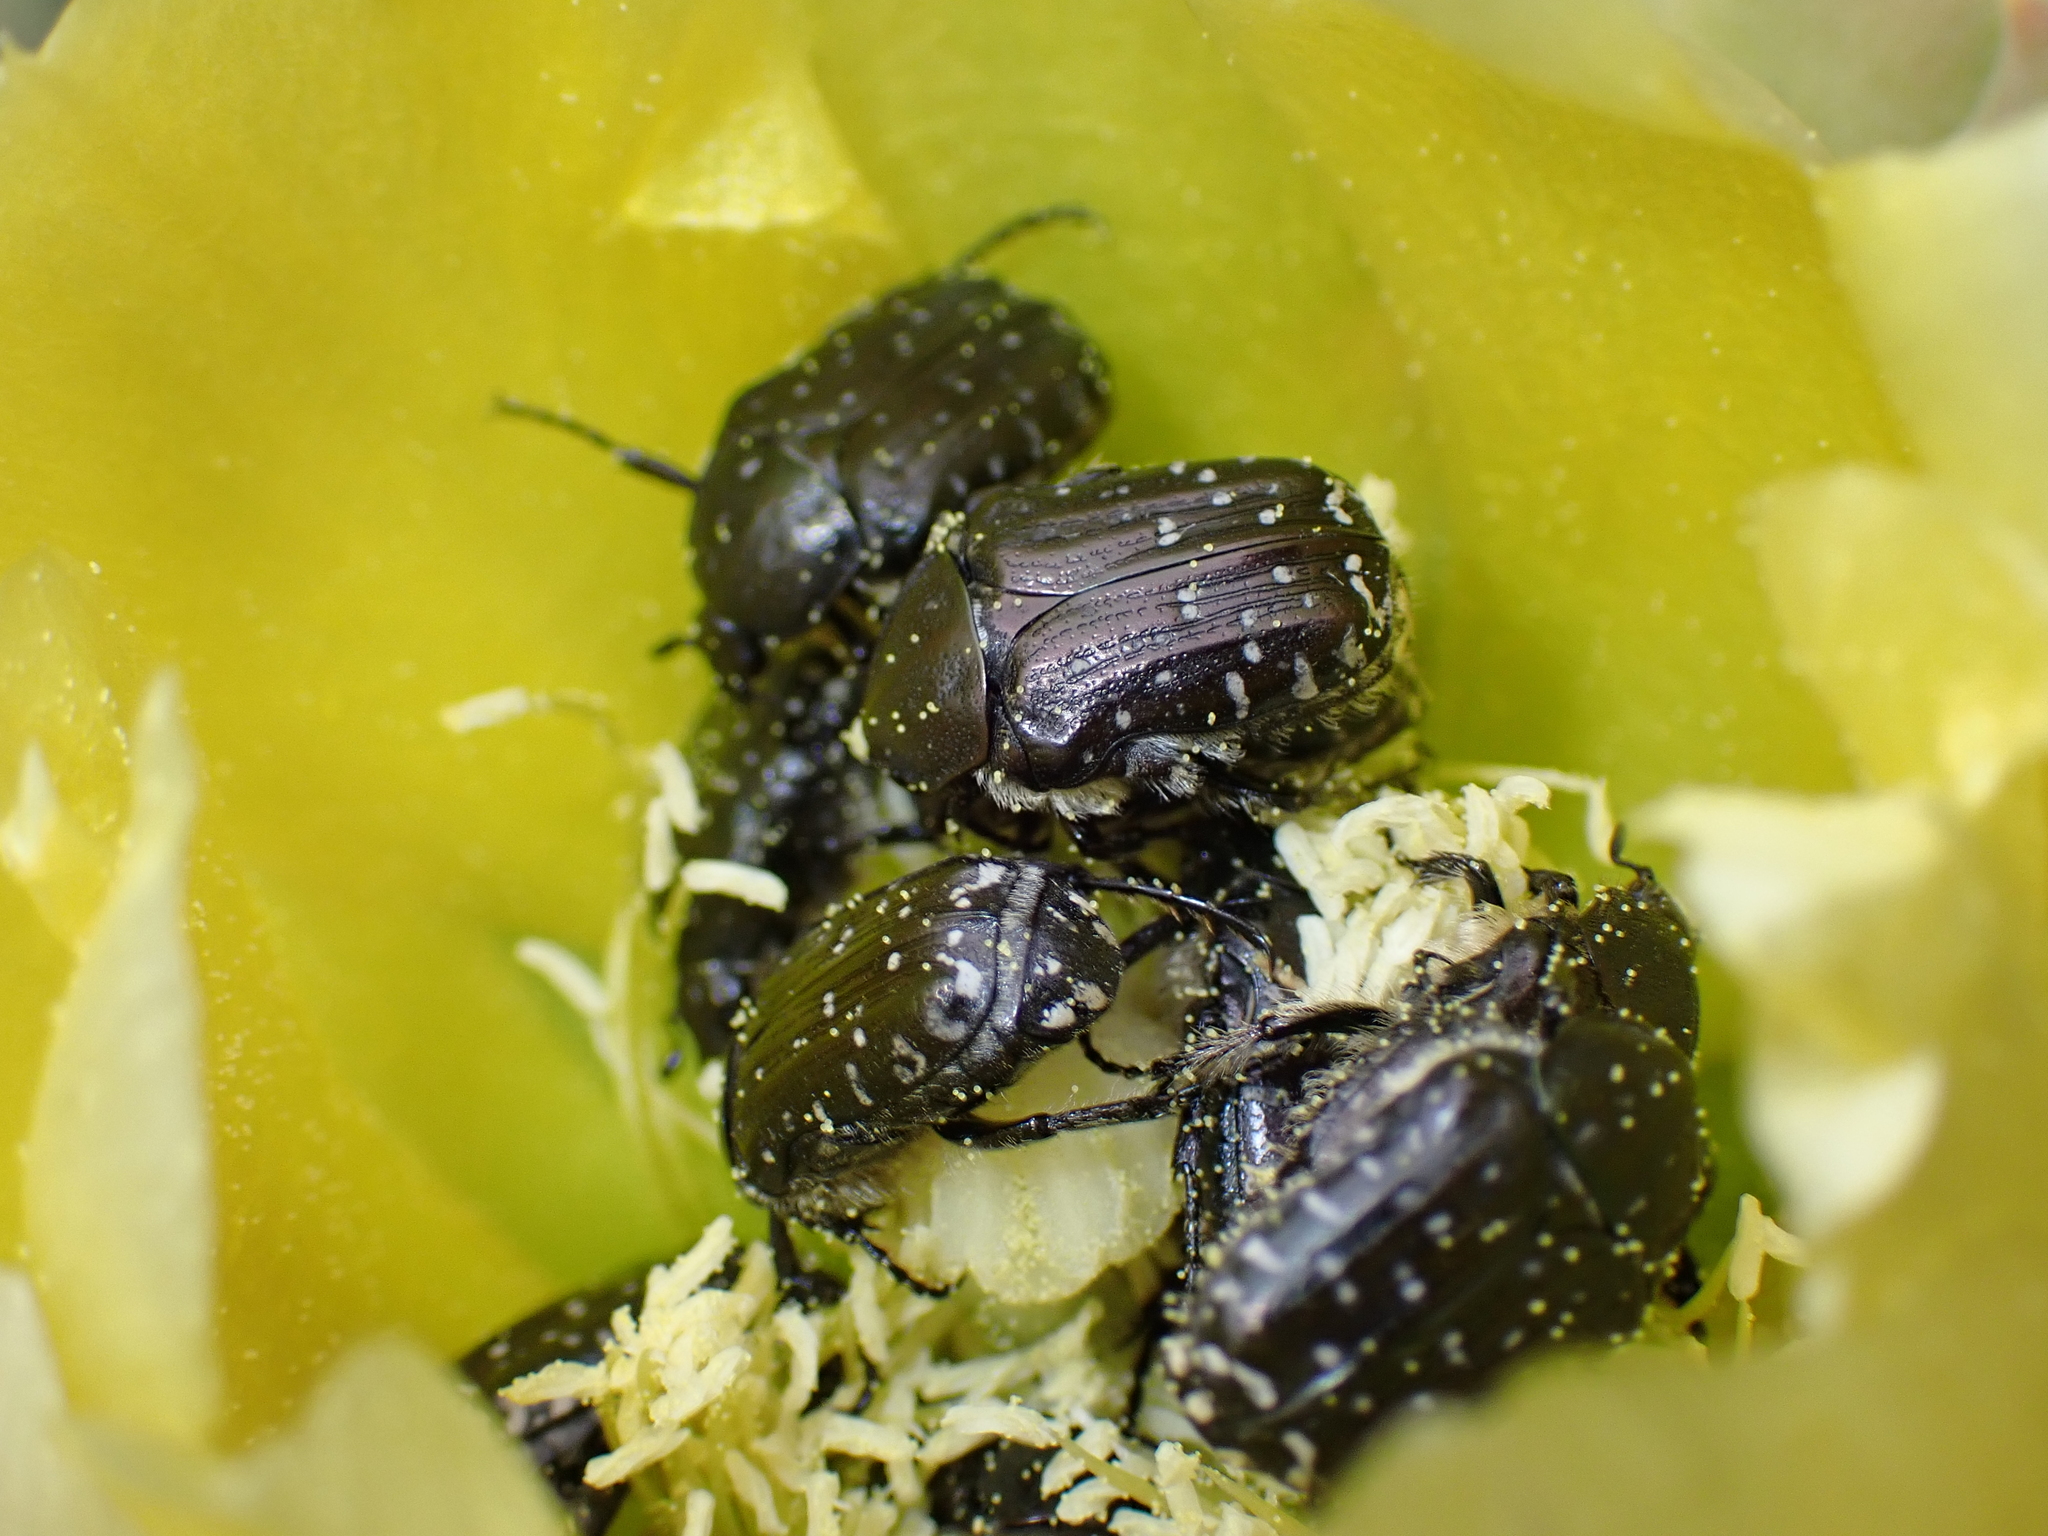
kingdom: Animalia
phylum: Arthropoda
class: Insecta
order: Coleoptera
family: Scarabaeidae
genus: Oxythyrea
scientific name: Oxythyrea funesta
